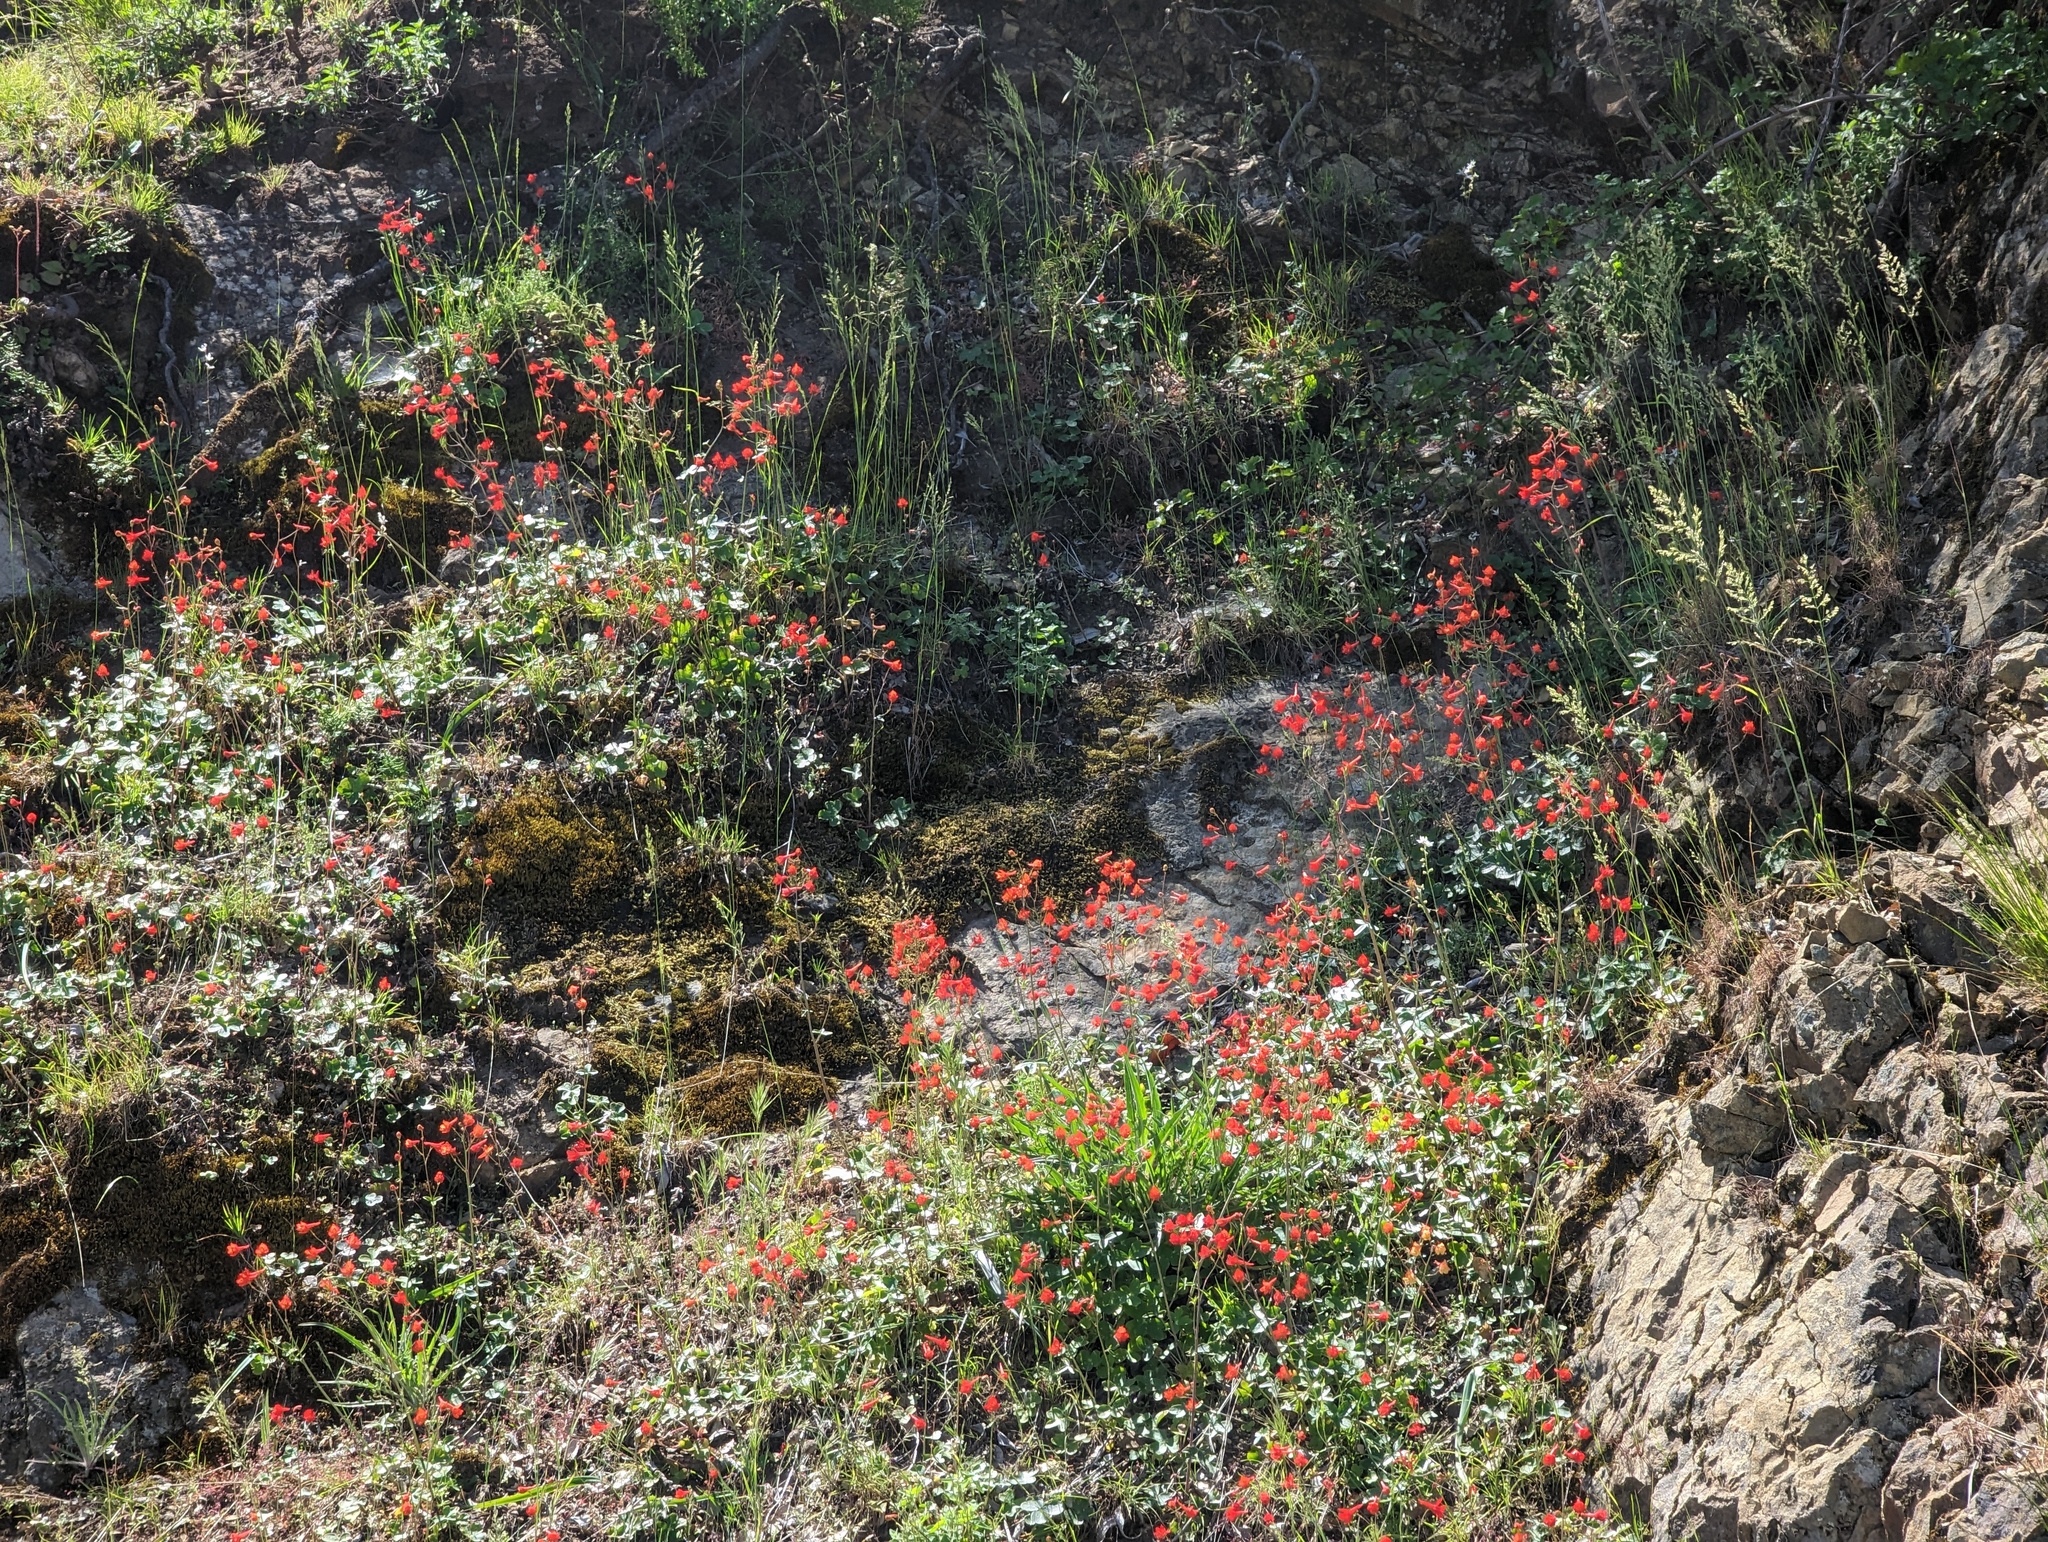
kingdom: Plantae
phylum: Tracheophyta
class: Magnoliopsida
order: Ranunculales
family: Ranunculaceae
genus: Delphinium
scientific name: Delphinium nudicaule
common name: Red larkspur
